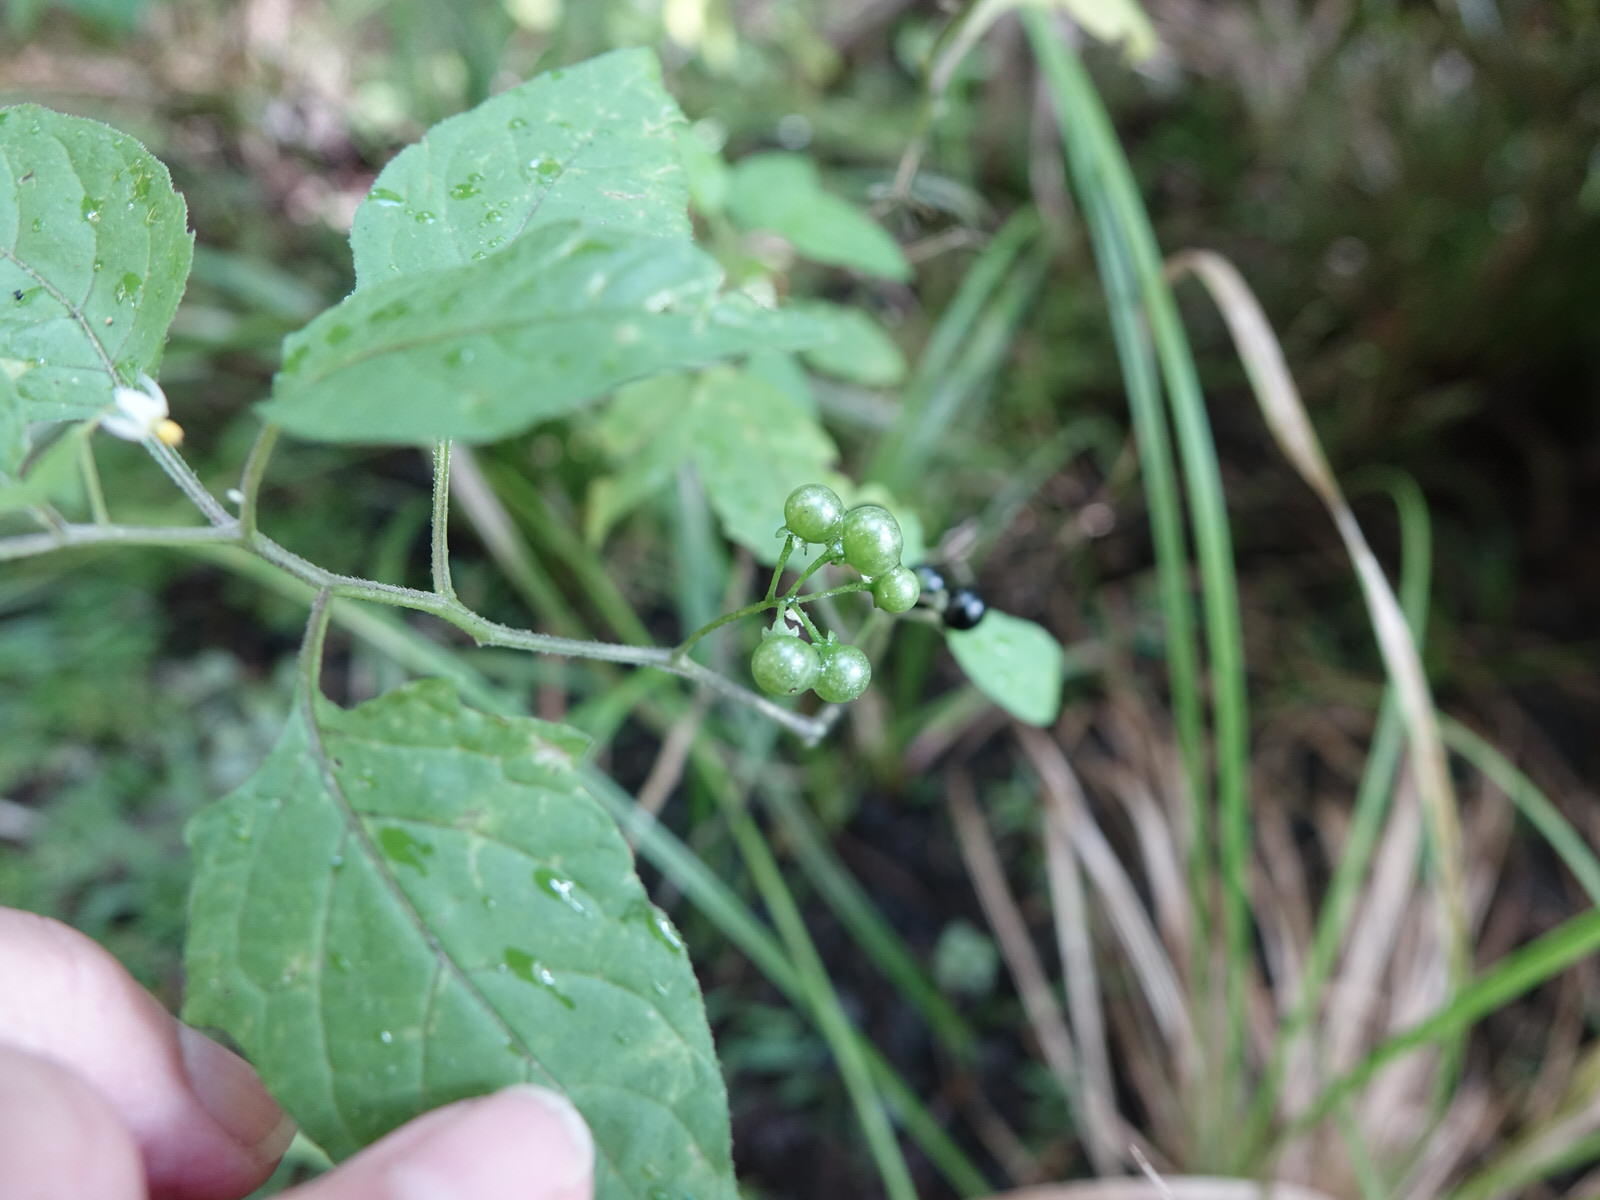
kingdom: Plantae
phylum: Tracheophyta
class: Magnoliopsida
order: Solanales
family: Solanaceae
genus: Solanum
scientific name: Solanum americanum
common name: American black nightshade
